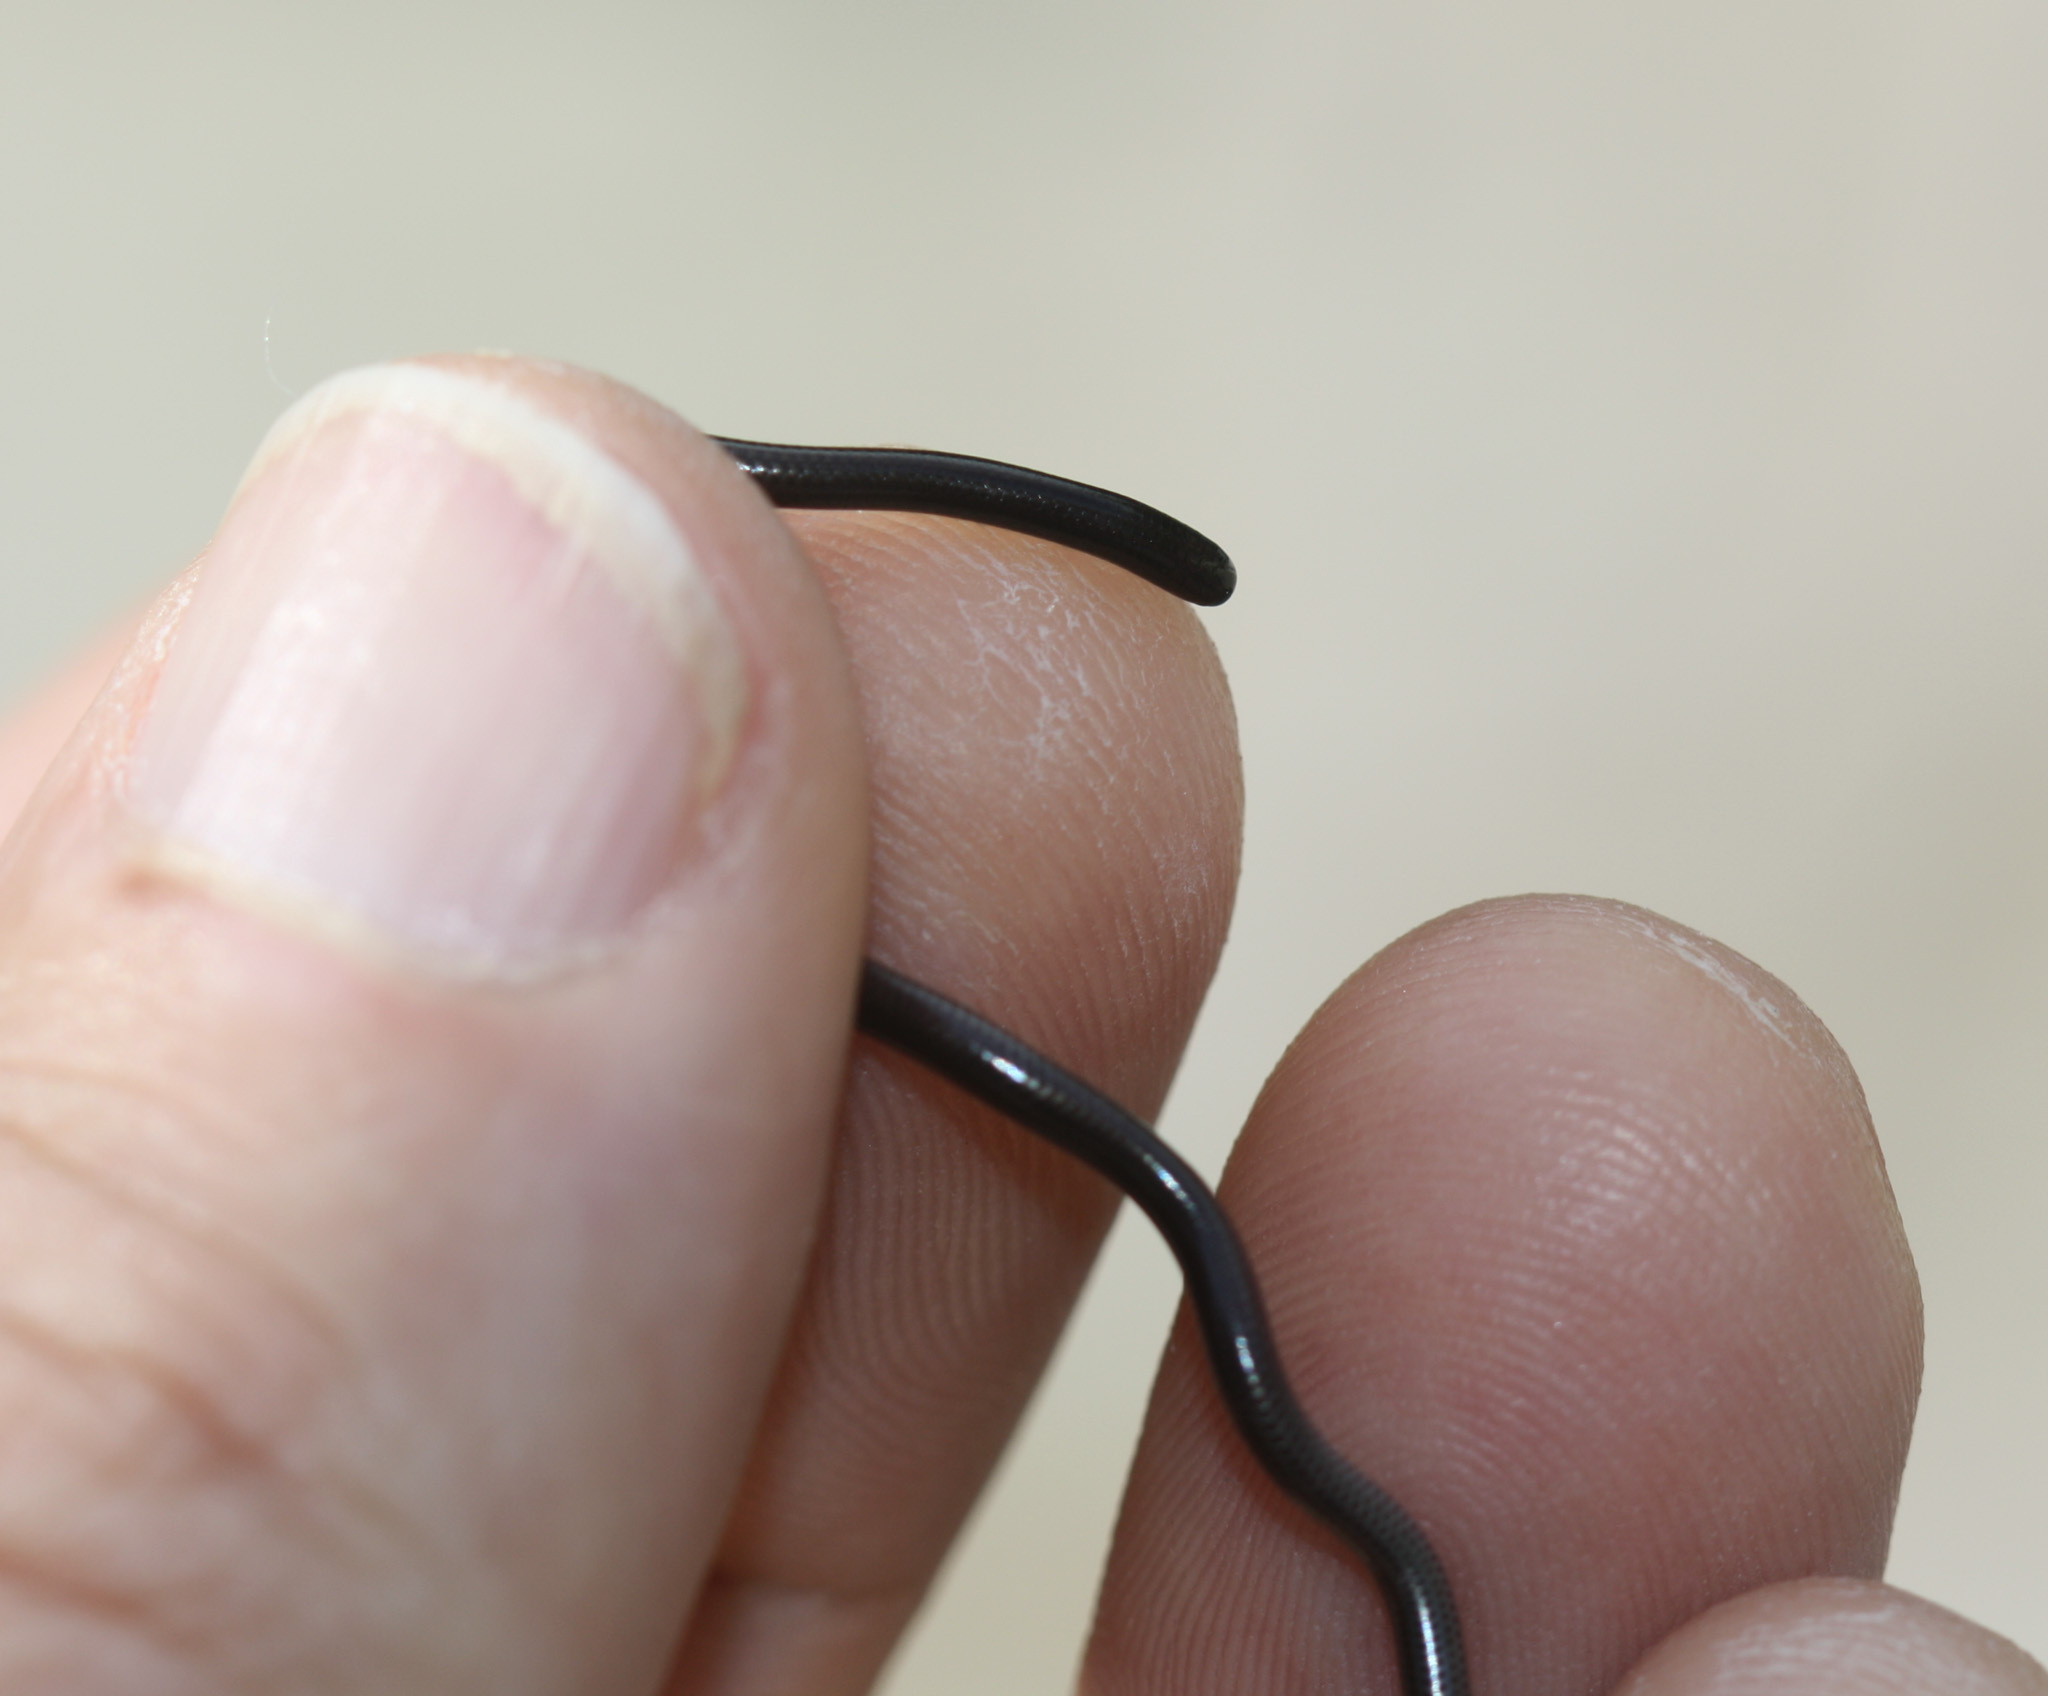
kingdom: Animalia
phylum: Chordata
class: Squamata
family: Leptotyphlopidae
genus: Epictia
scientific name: Epictia ater
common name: Black blind snake
